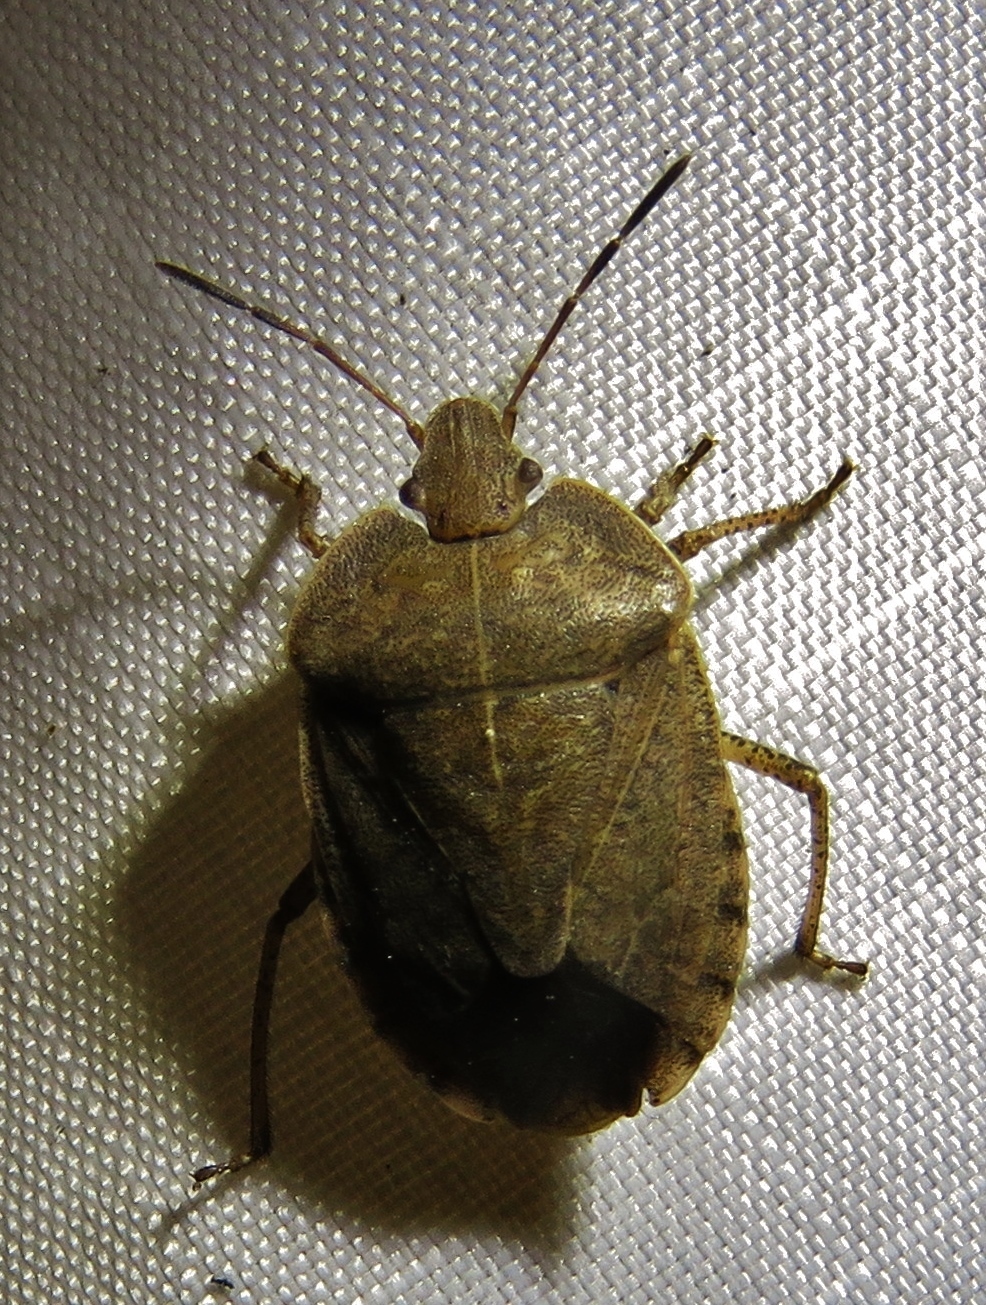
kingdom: Animalia
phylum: Arthropoda
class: Insecta
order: Hemiptera
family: Pentatomidae
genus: Menecles
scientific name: Menecles insertus
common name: Elf shoe stink bug
